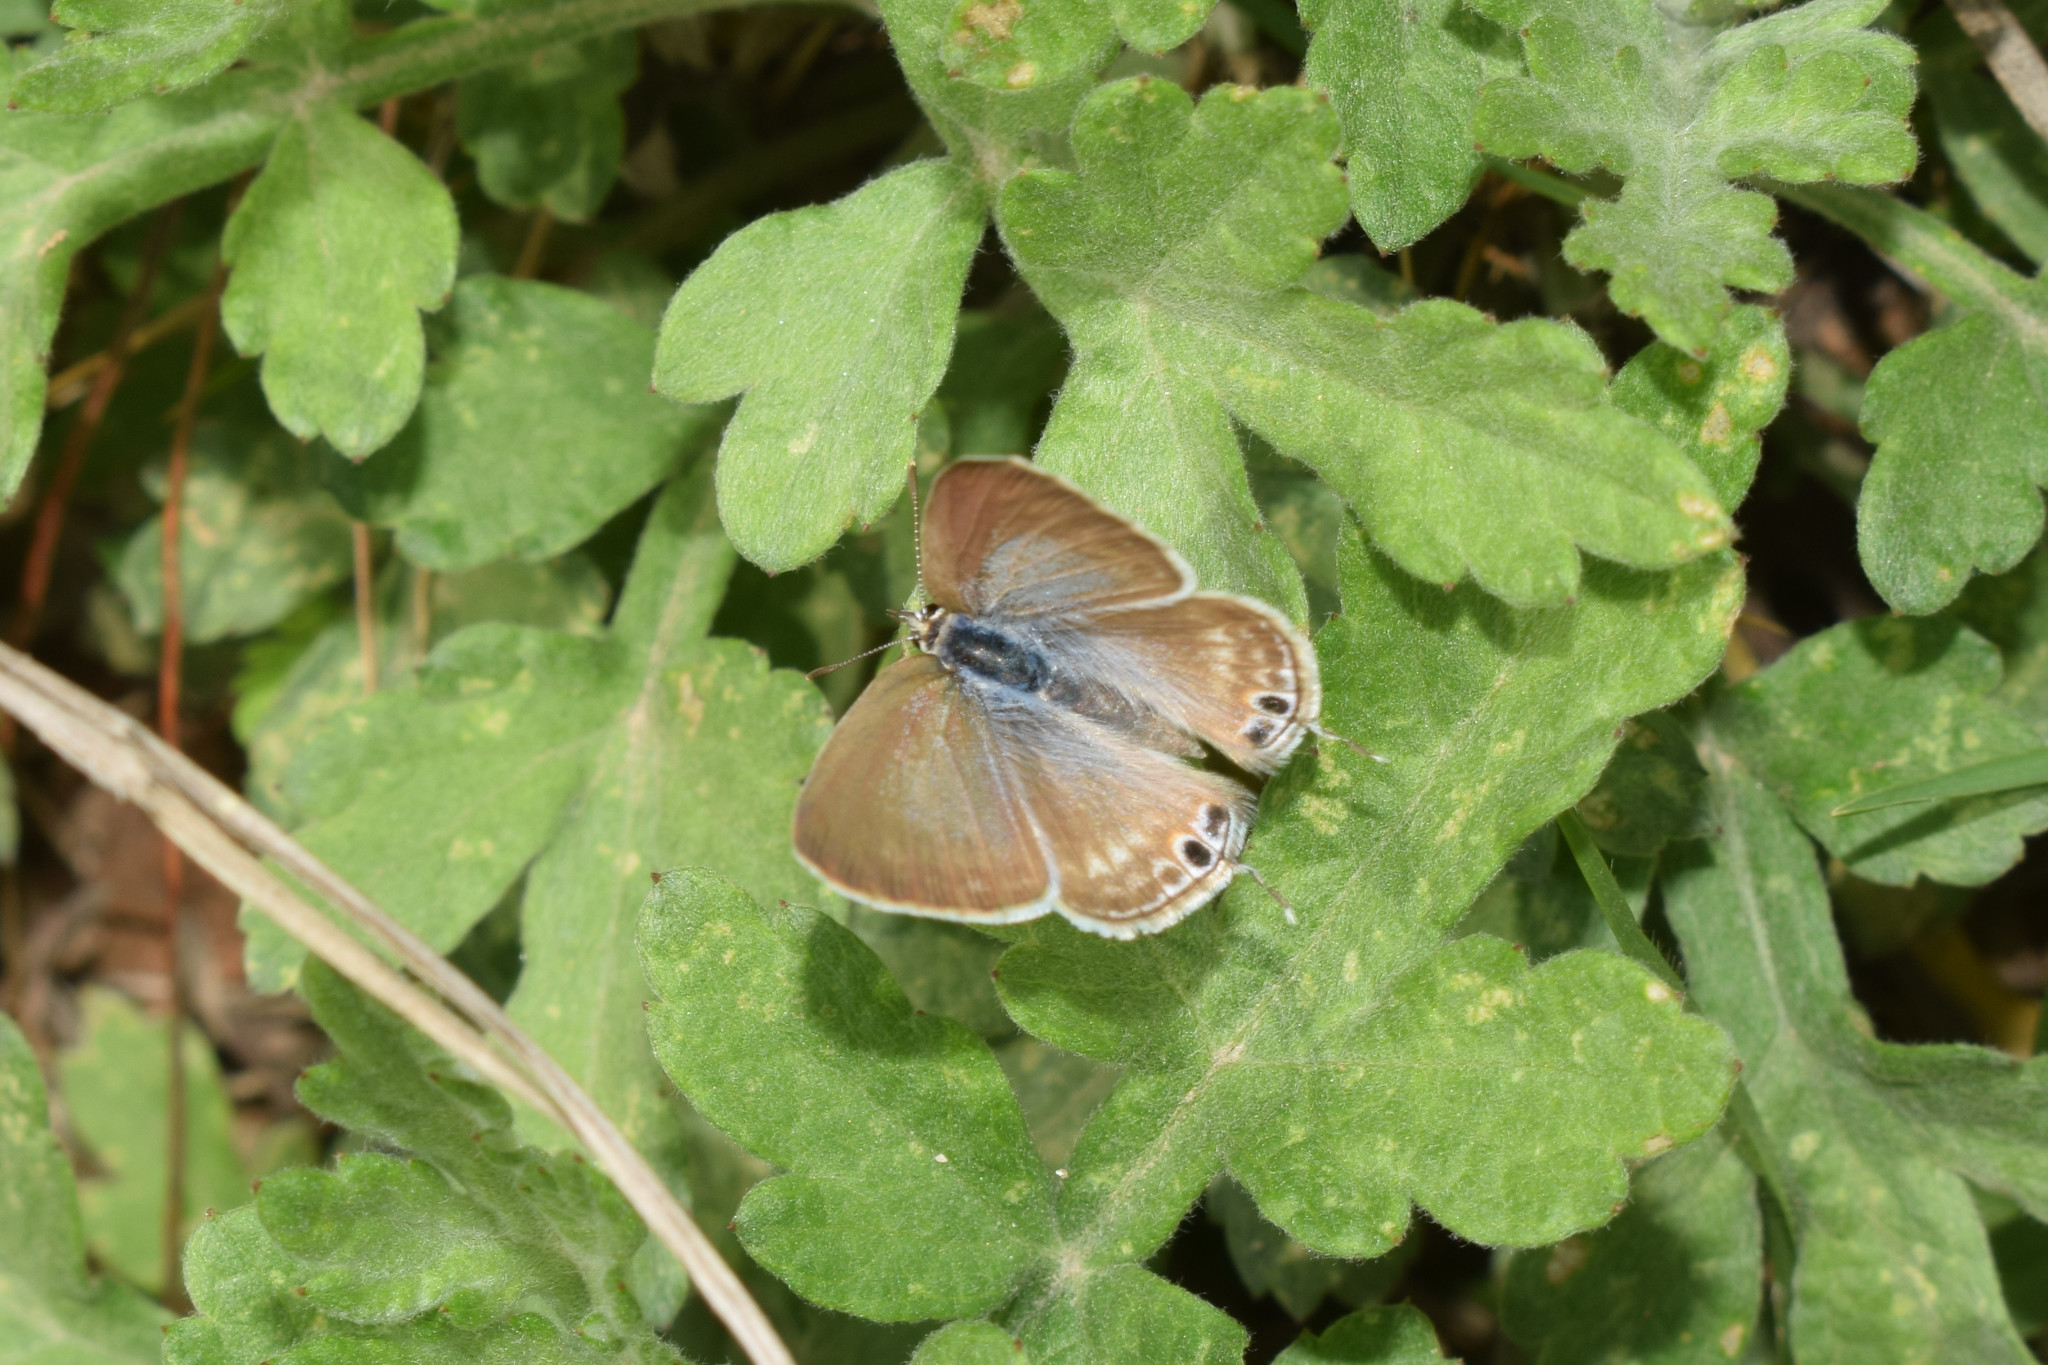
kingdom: Animalia
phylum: Arthropoda
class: Insecta
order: Lepidoptera
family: Lycaenidae
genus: Lampides
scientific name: Lampides boeticus
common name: Long-tailed blue
